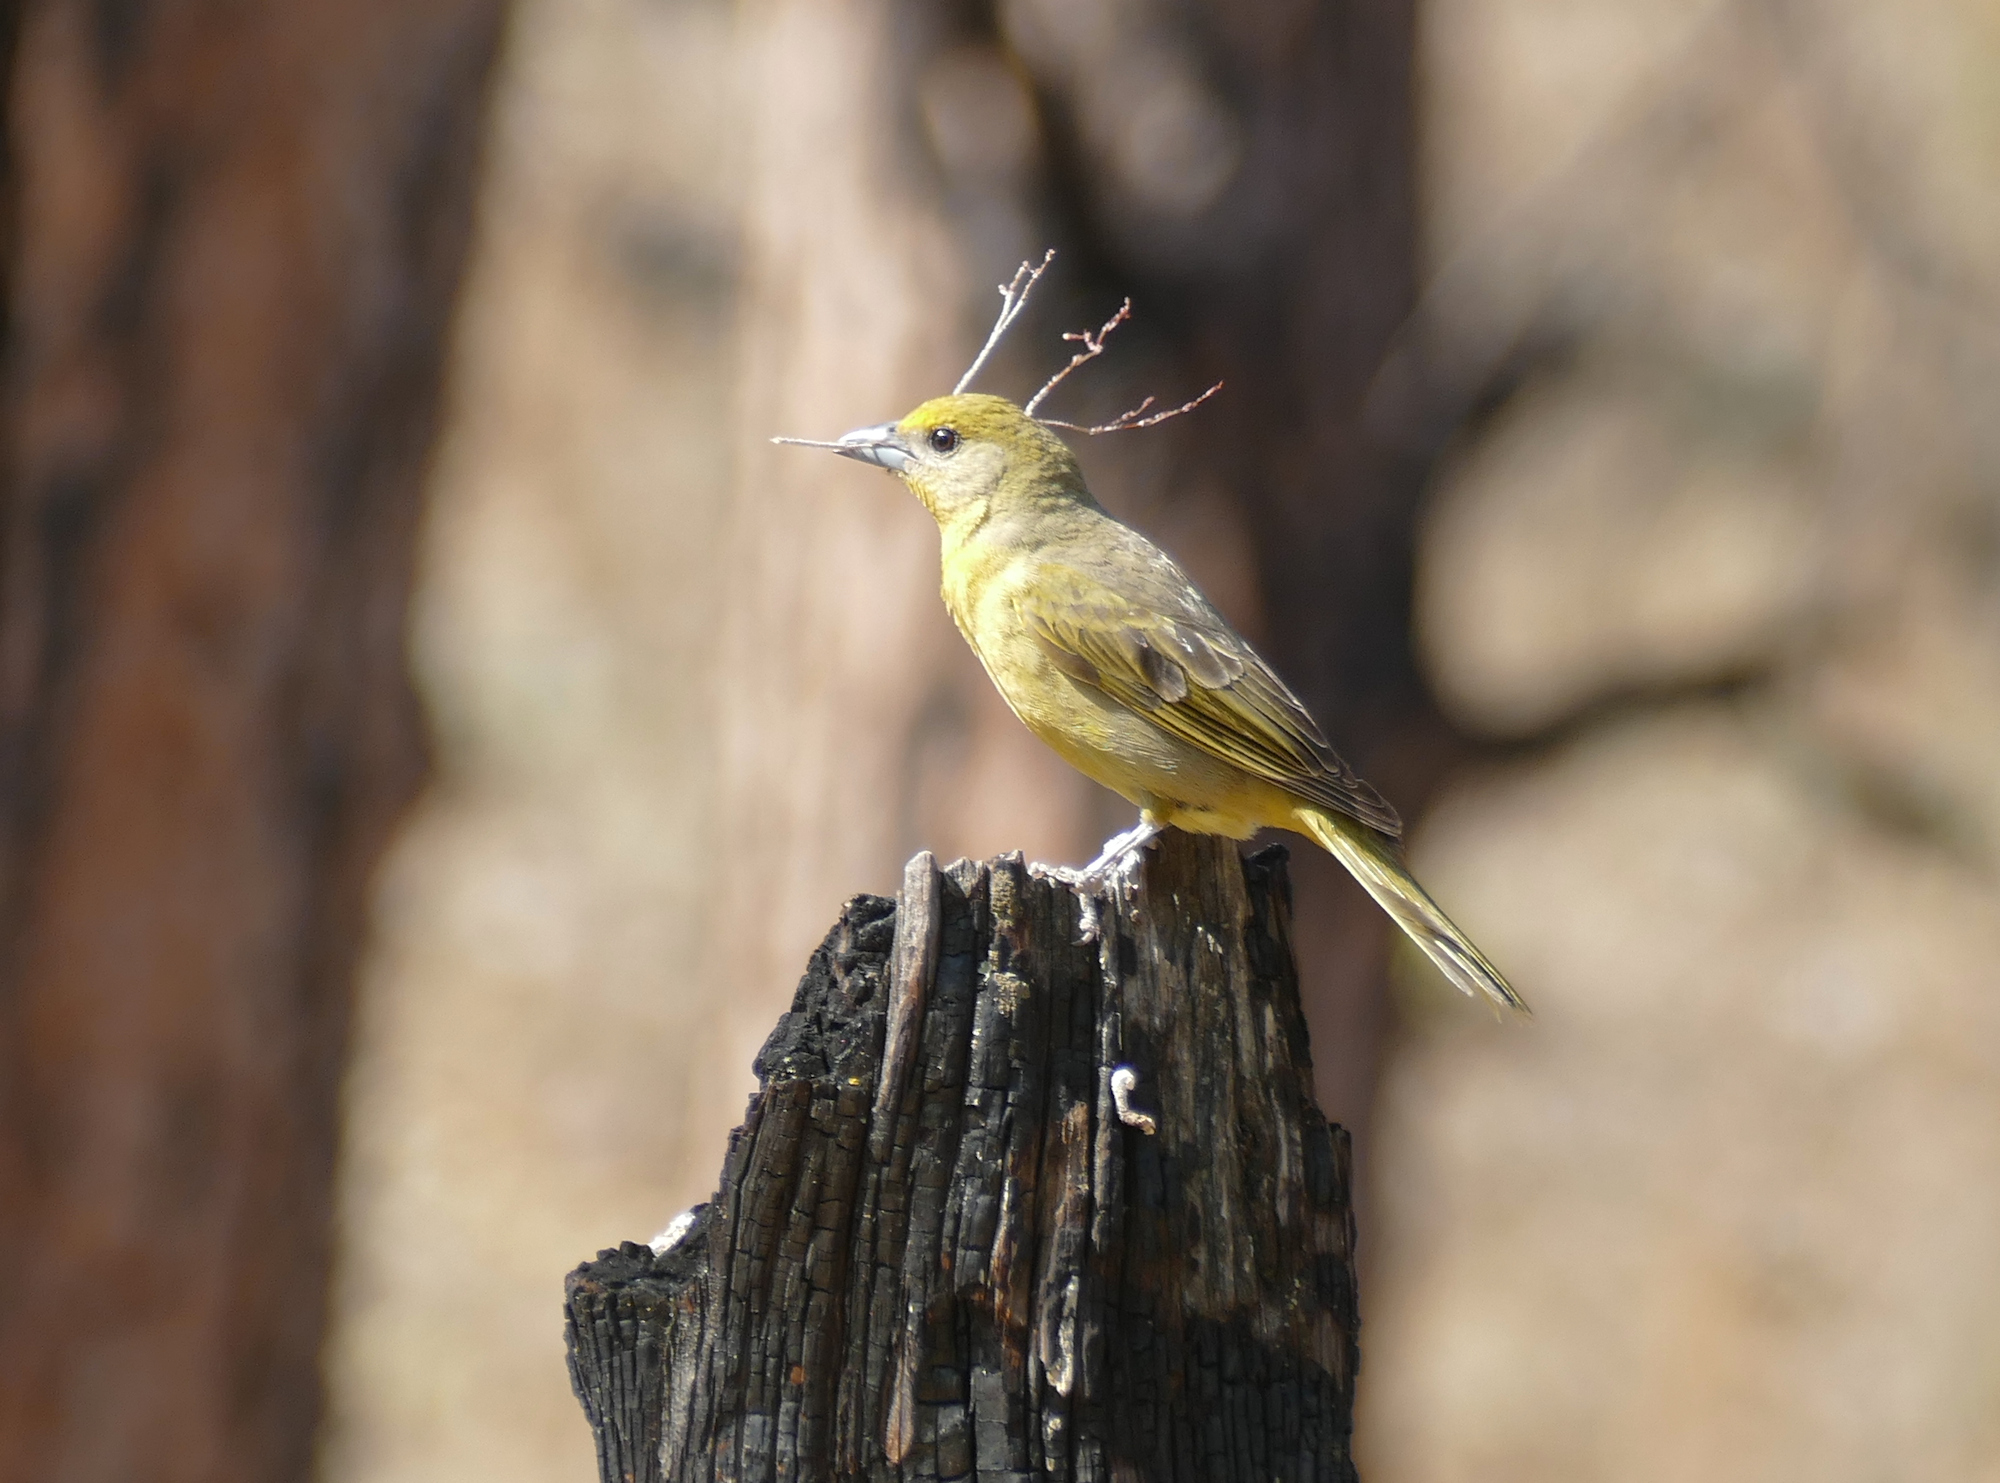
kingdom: Animalia
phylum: Chordata
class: Aves
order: Passeriformes
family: Cardinalidae
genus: Piranga
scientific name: Piranga flava
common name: Red tanager
